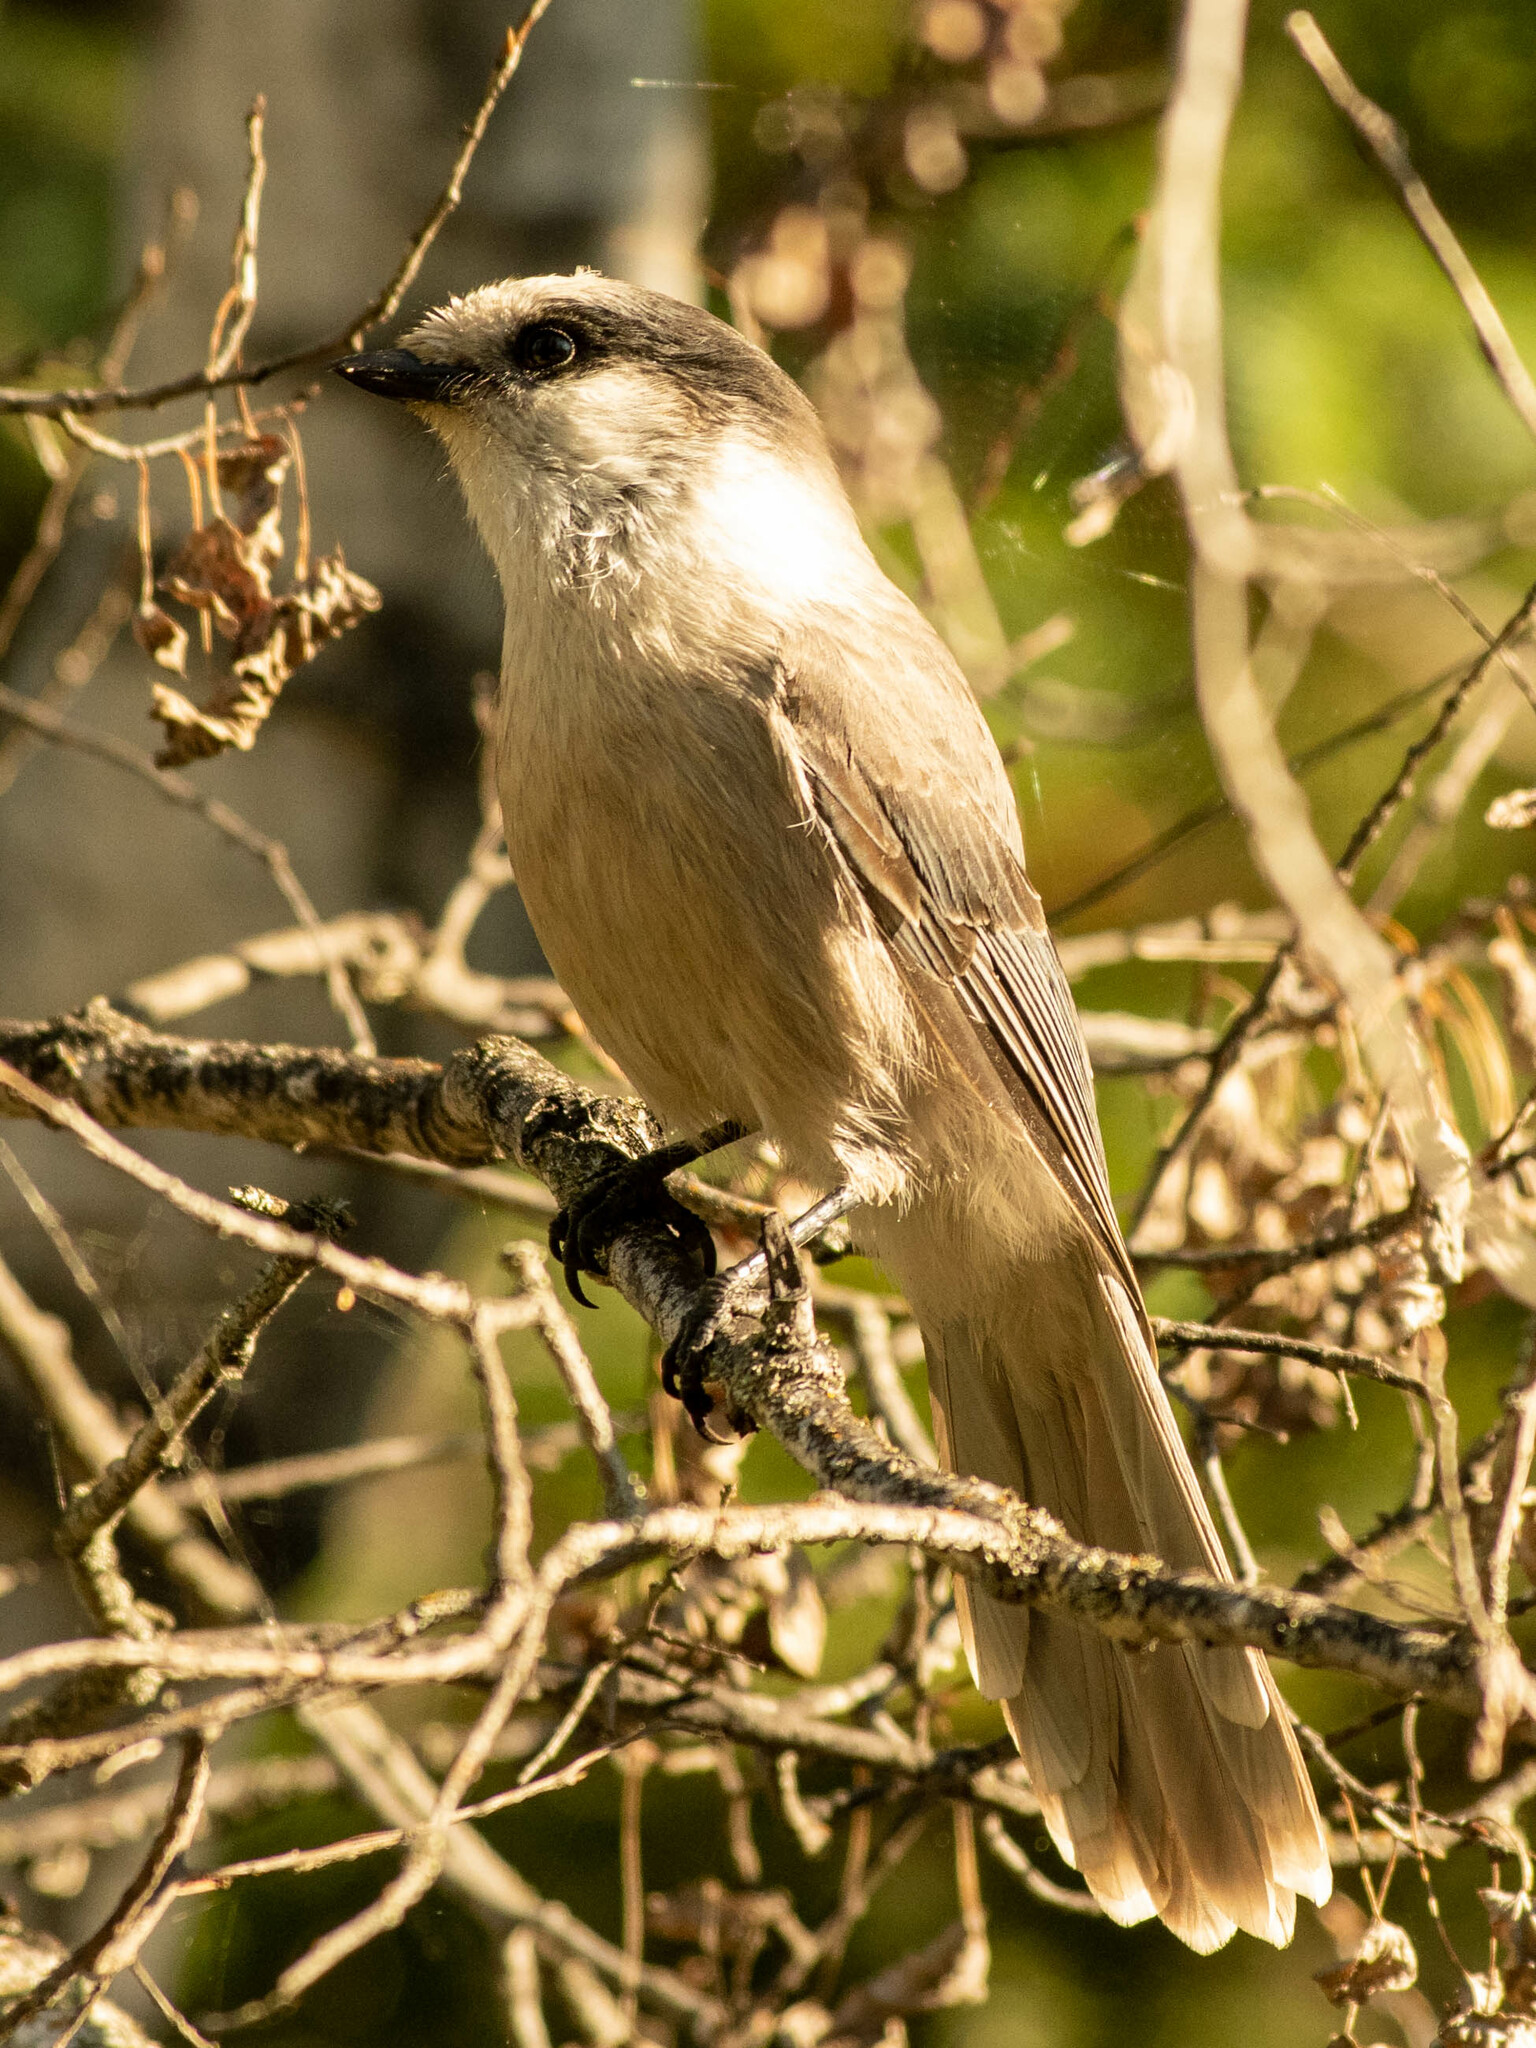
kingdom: Animalia
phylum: Chordata
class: Aves
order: Passeriformes
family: Corvidae
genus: Perisoreus
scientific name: Perisoreus canadensis
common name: Gray jay
